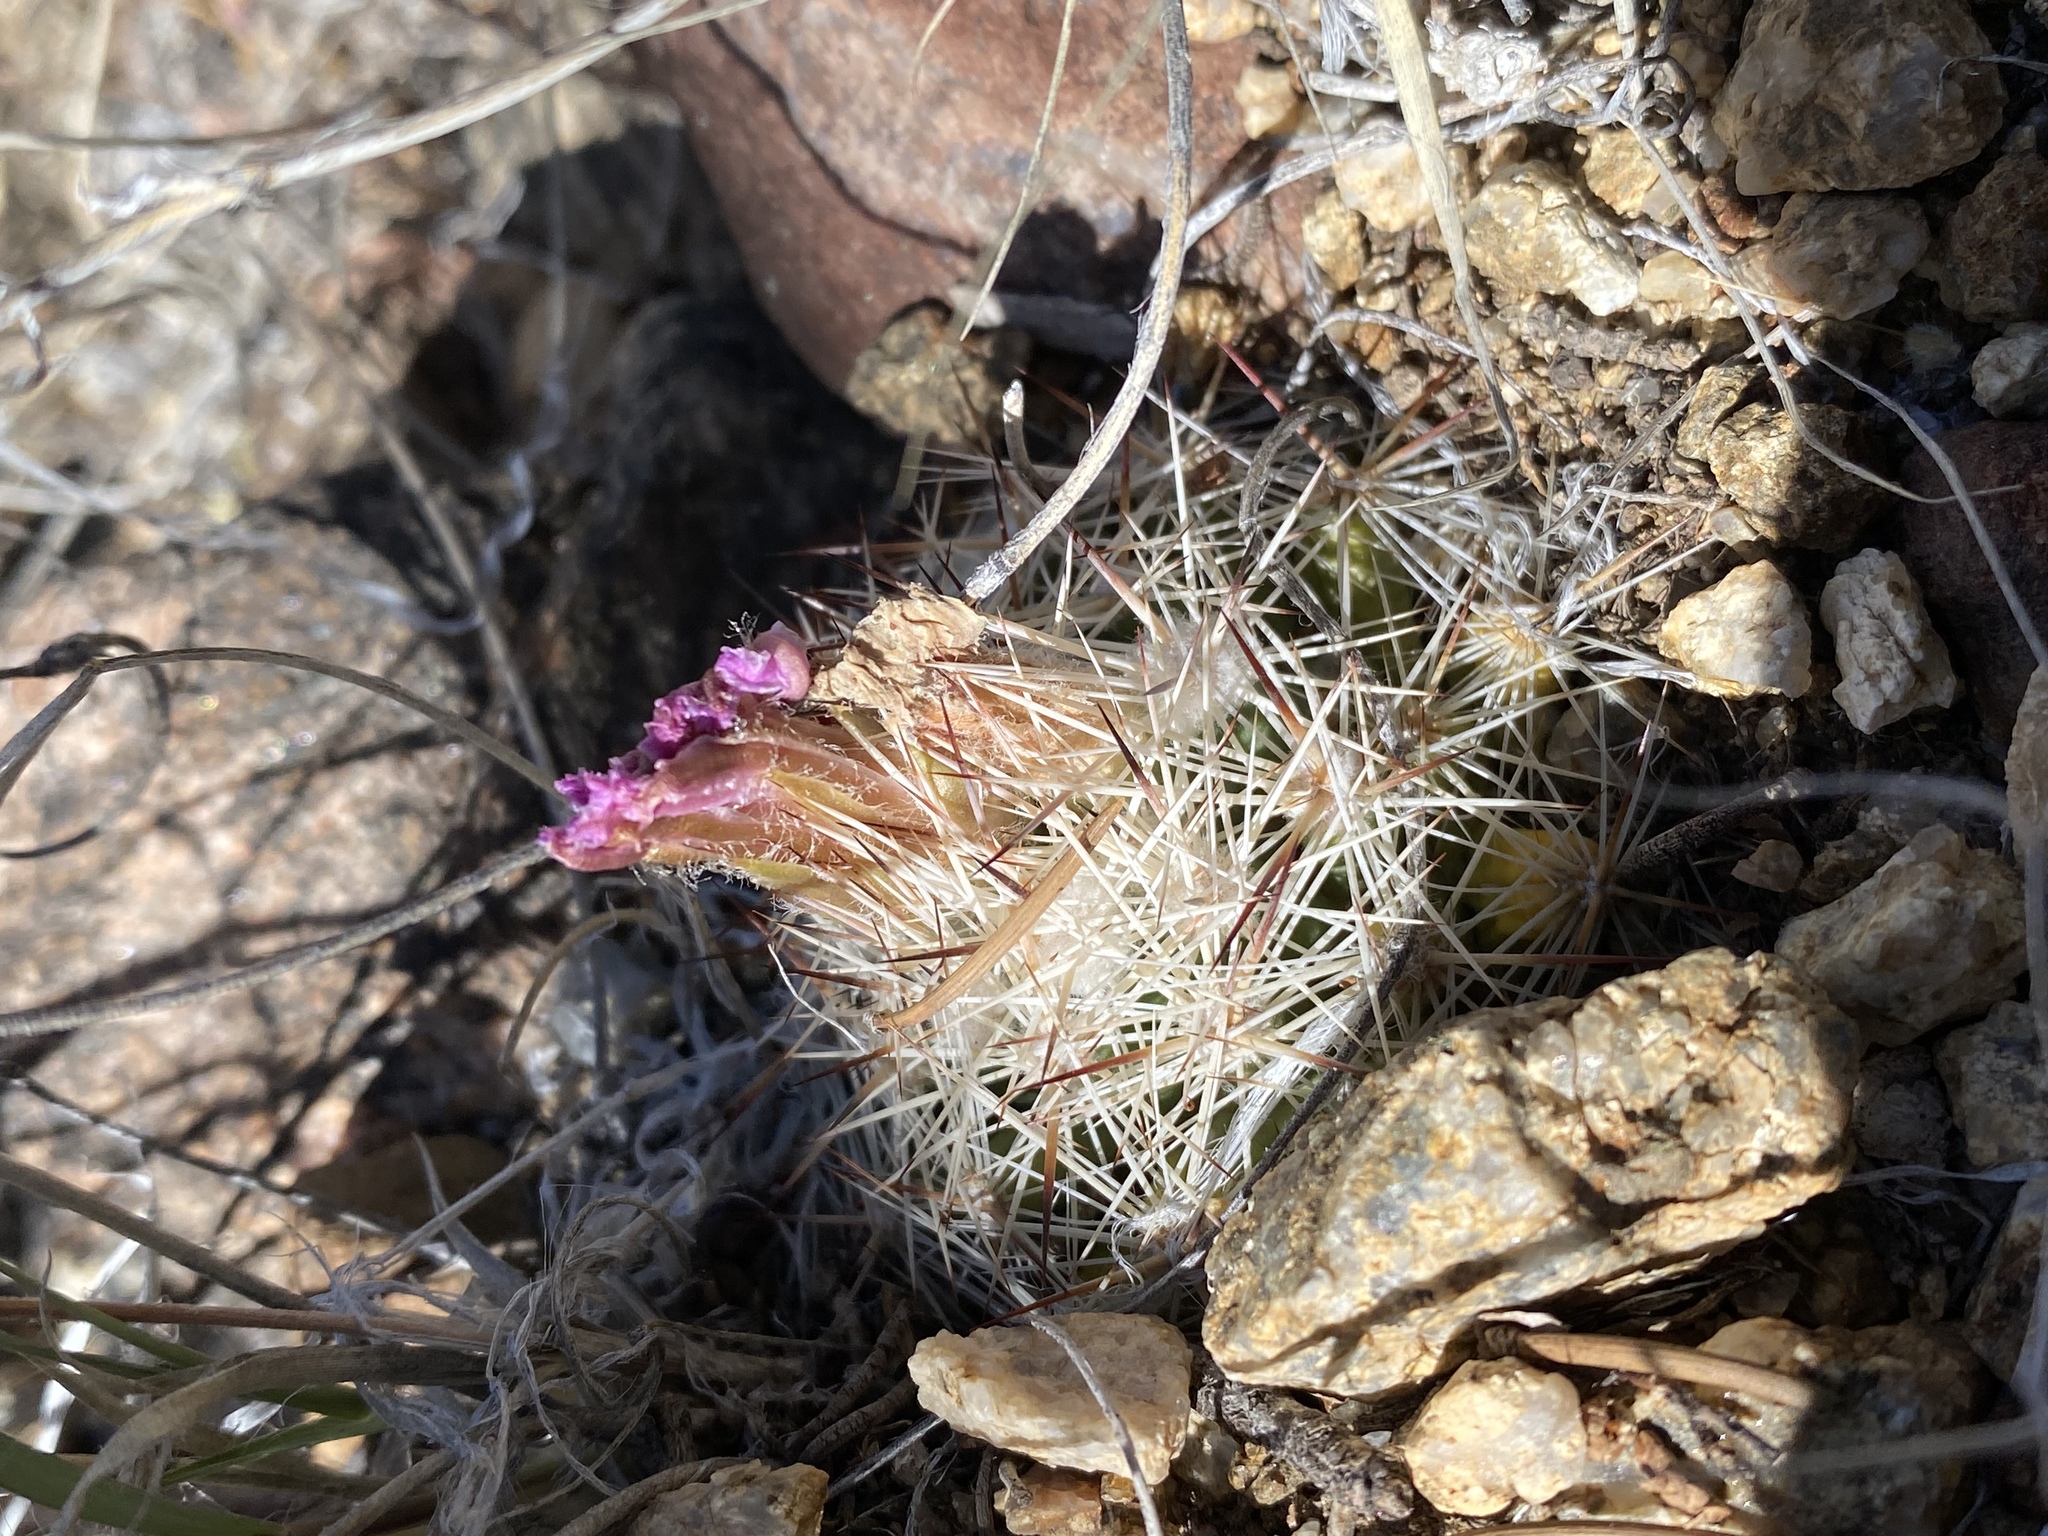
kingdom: Plantae
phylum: Tracheophyta
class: Magnoliopsida
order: Caryophyllales
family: Cactaceae
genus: Pelecyphora
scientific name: Pelecyphora vivipara
